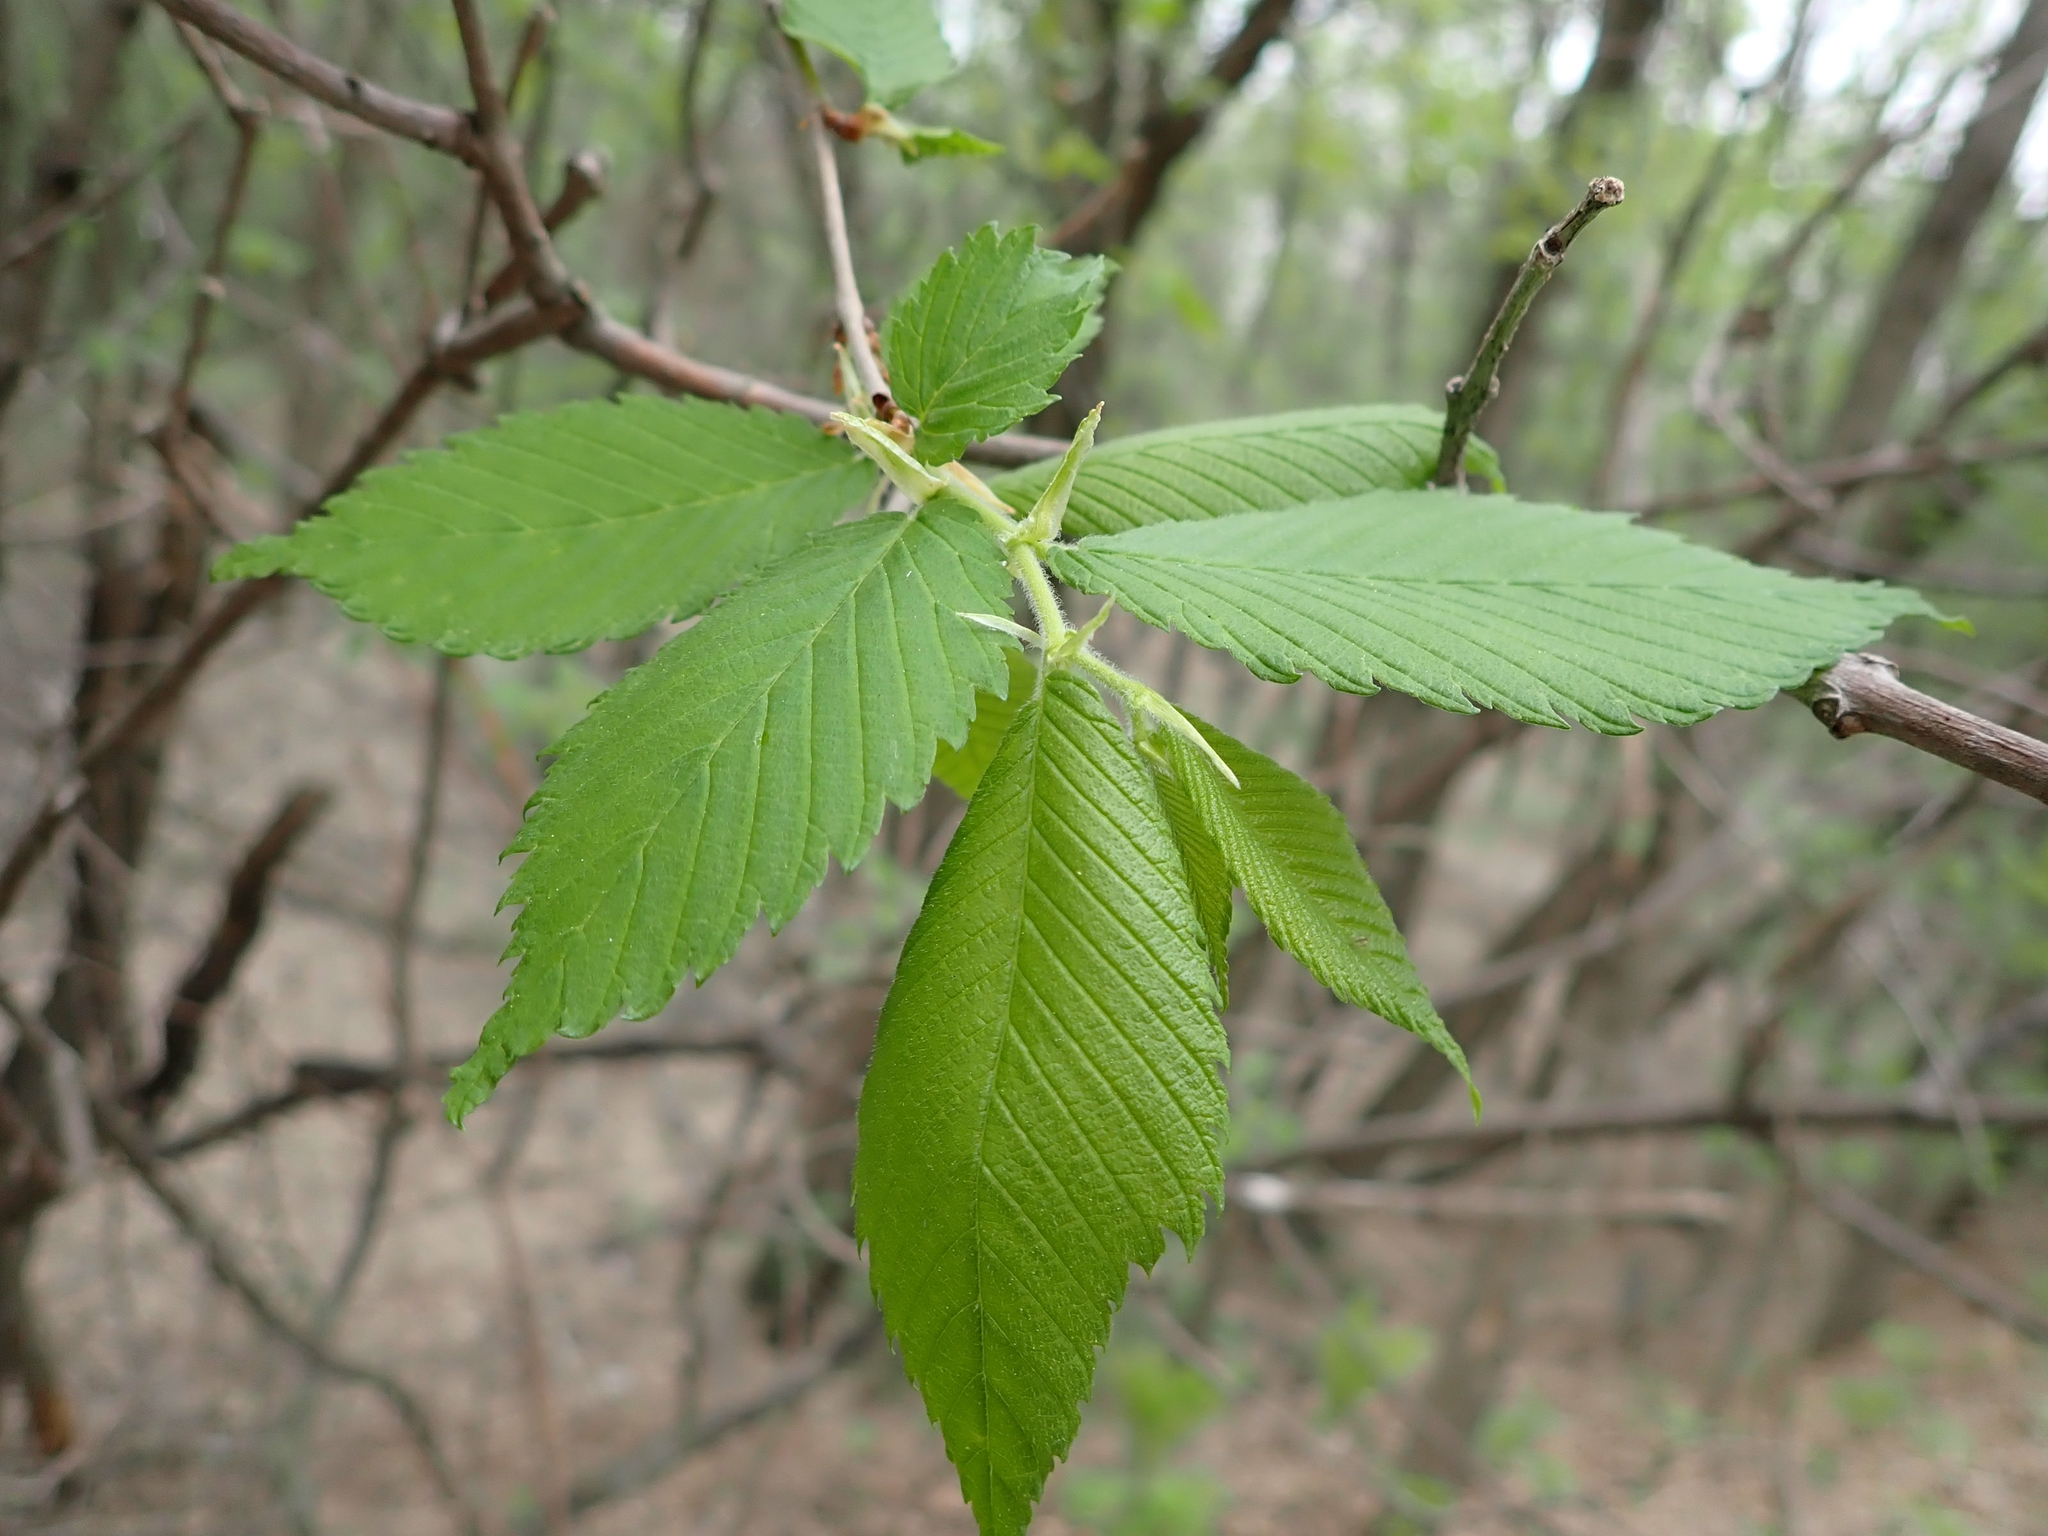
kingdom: Plantae
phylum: Tracheophyta
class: Magnoliopsida
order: Rosales
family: Ulmaceae
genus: Ulmus
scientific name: Ulmus americana
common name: American elm
